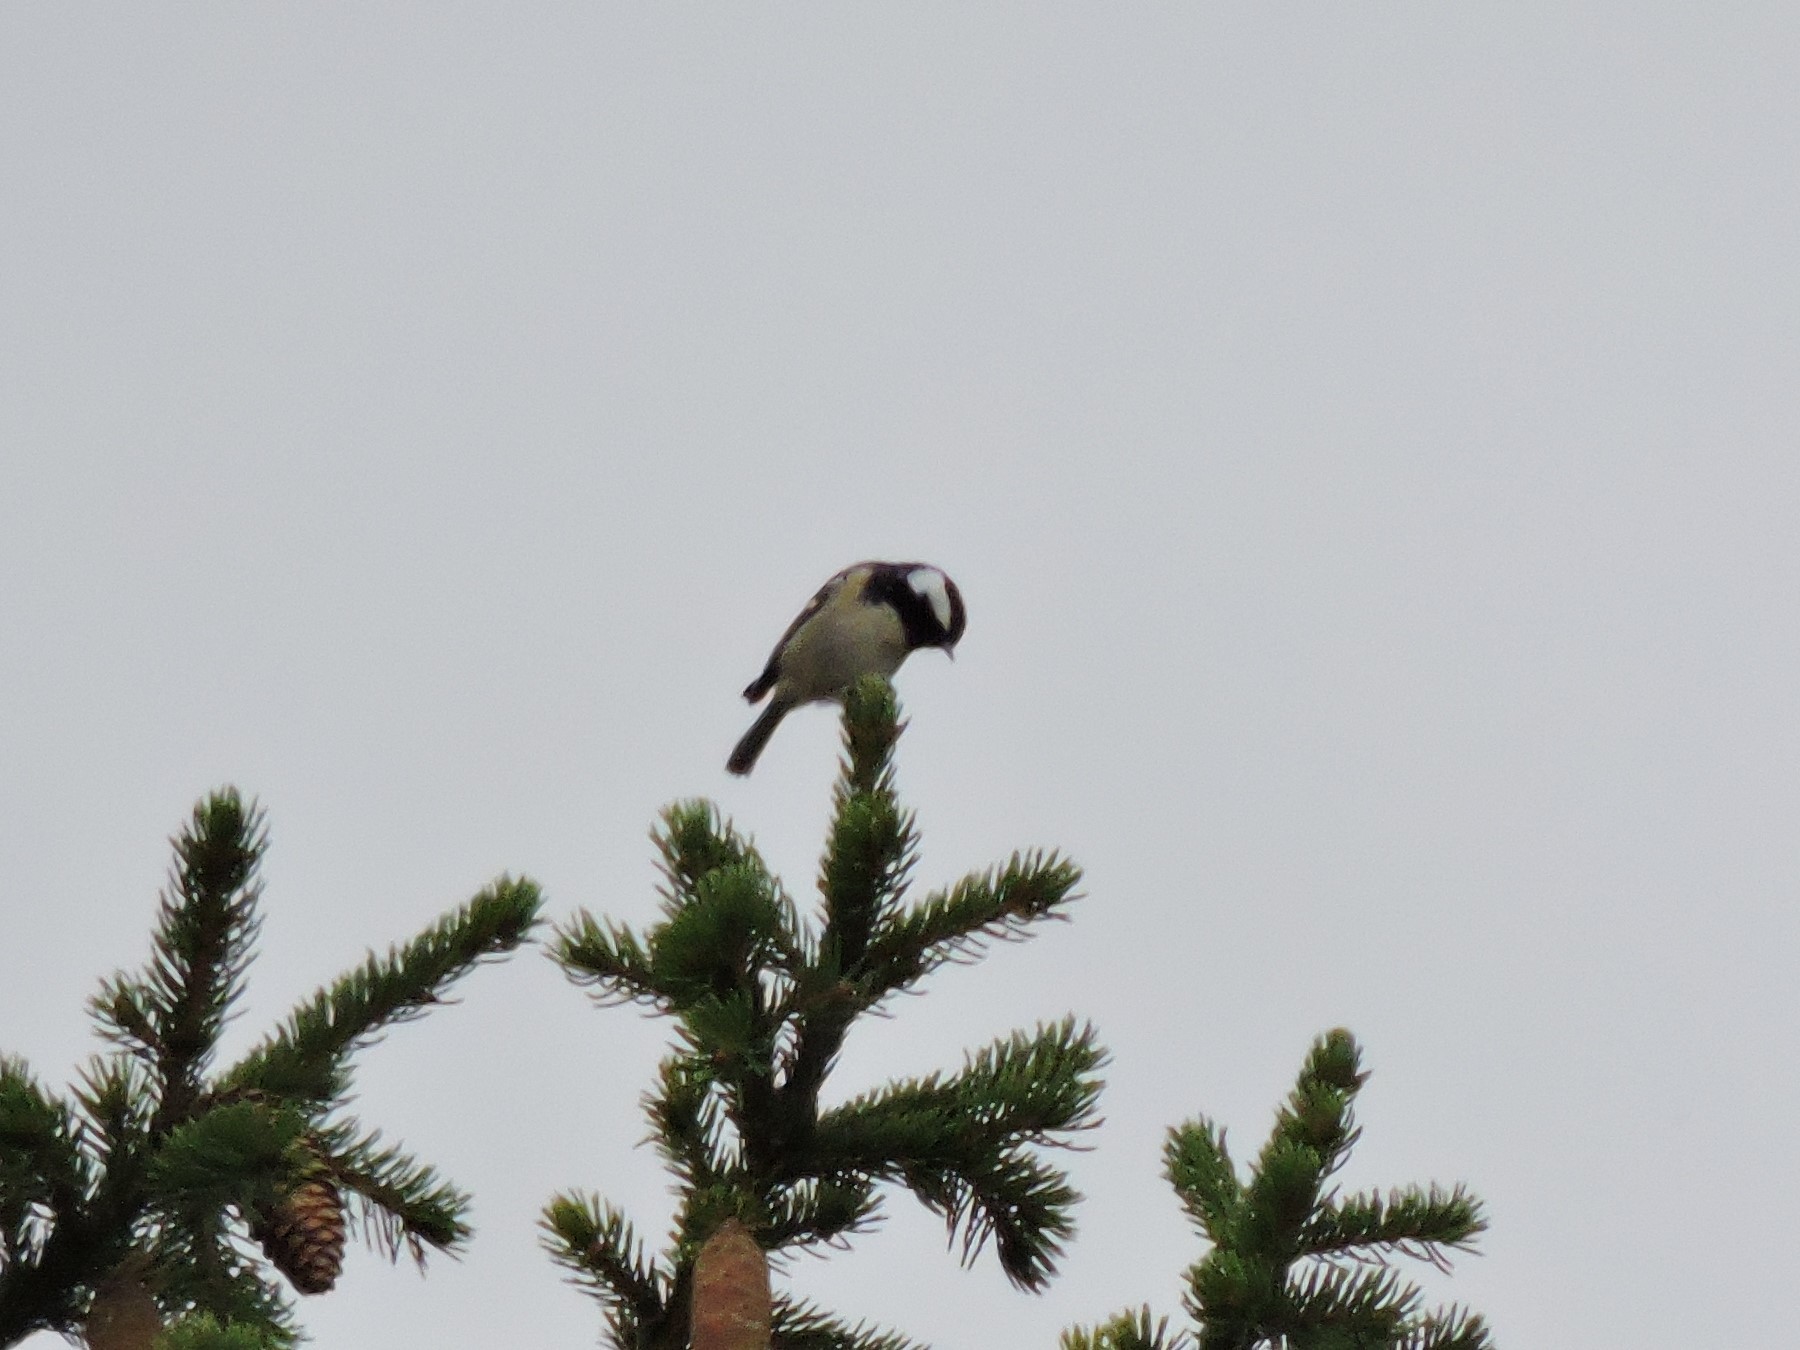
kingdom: Animalia
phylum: Chordata
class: Aves
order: Passeriformes
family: Paridae
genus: Periparus
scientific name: Periparus ater
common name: Coal tit
